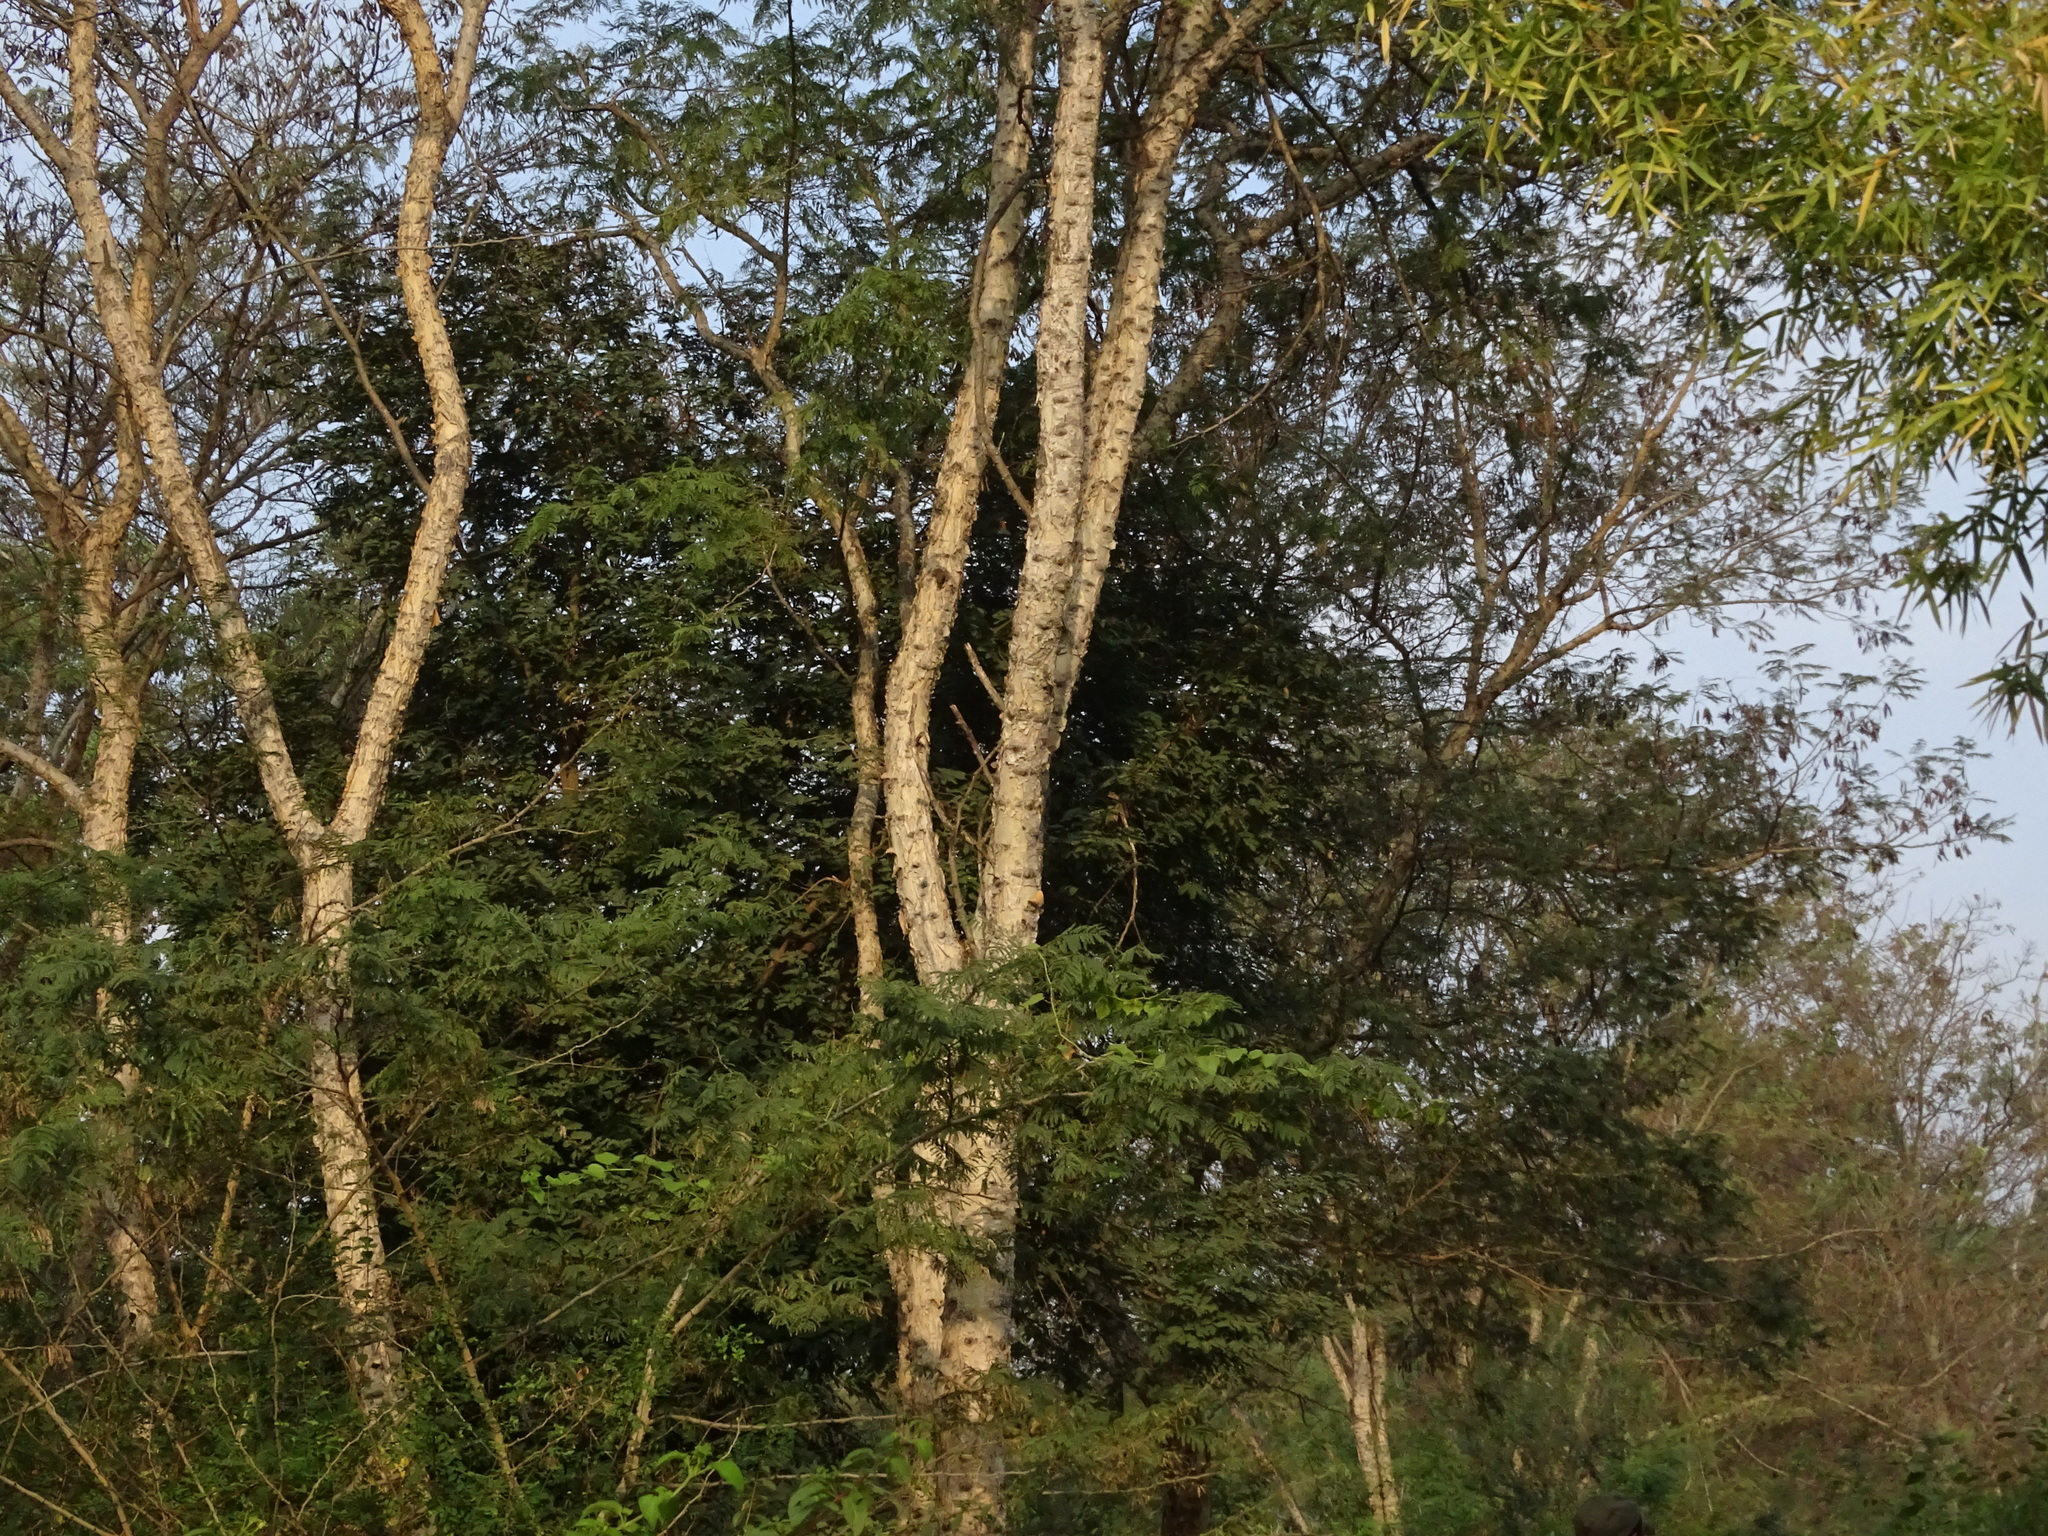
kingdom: Plantae
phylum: Tracheophyta
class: Magnoliopsida
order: Fabales
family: Fabaceae
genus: Senegalia
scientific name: Senegalia polyacantha
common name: Whitethorn
